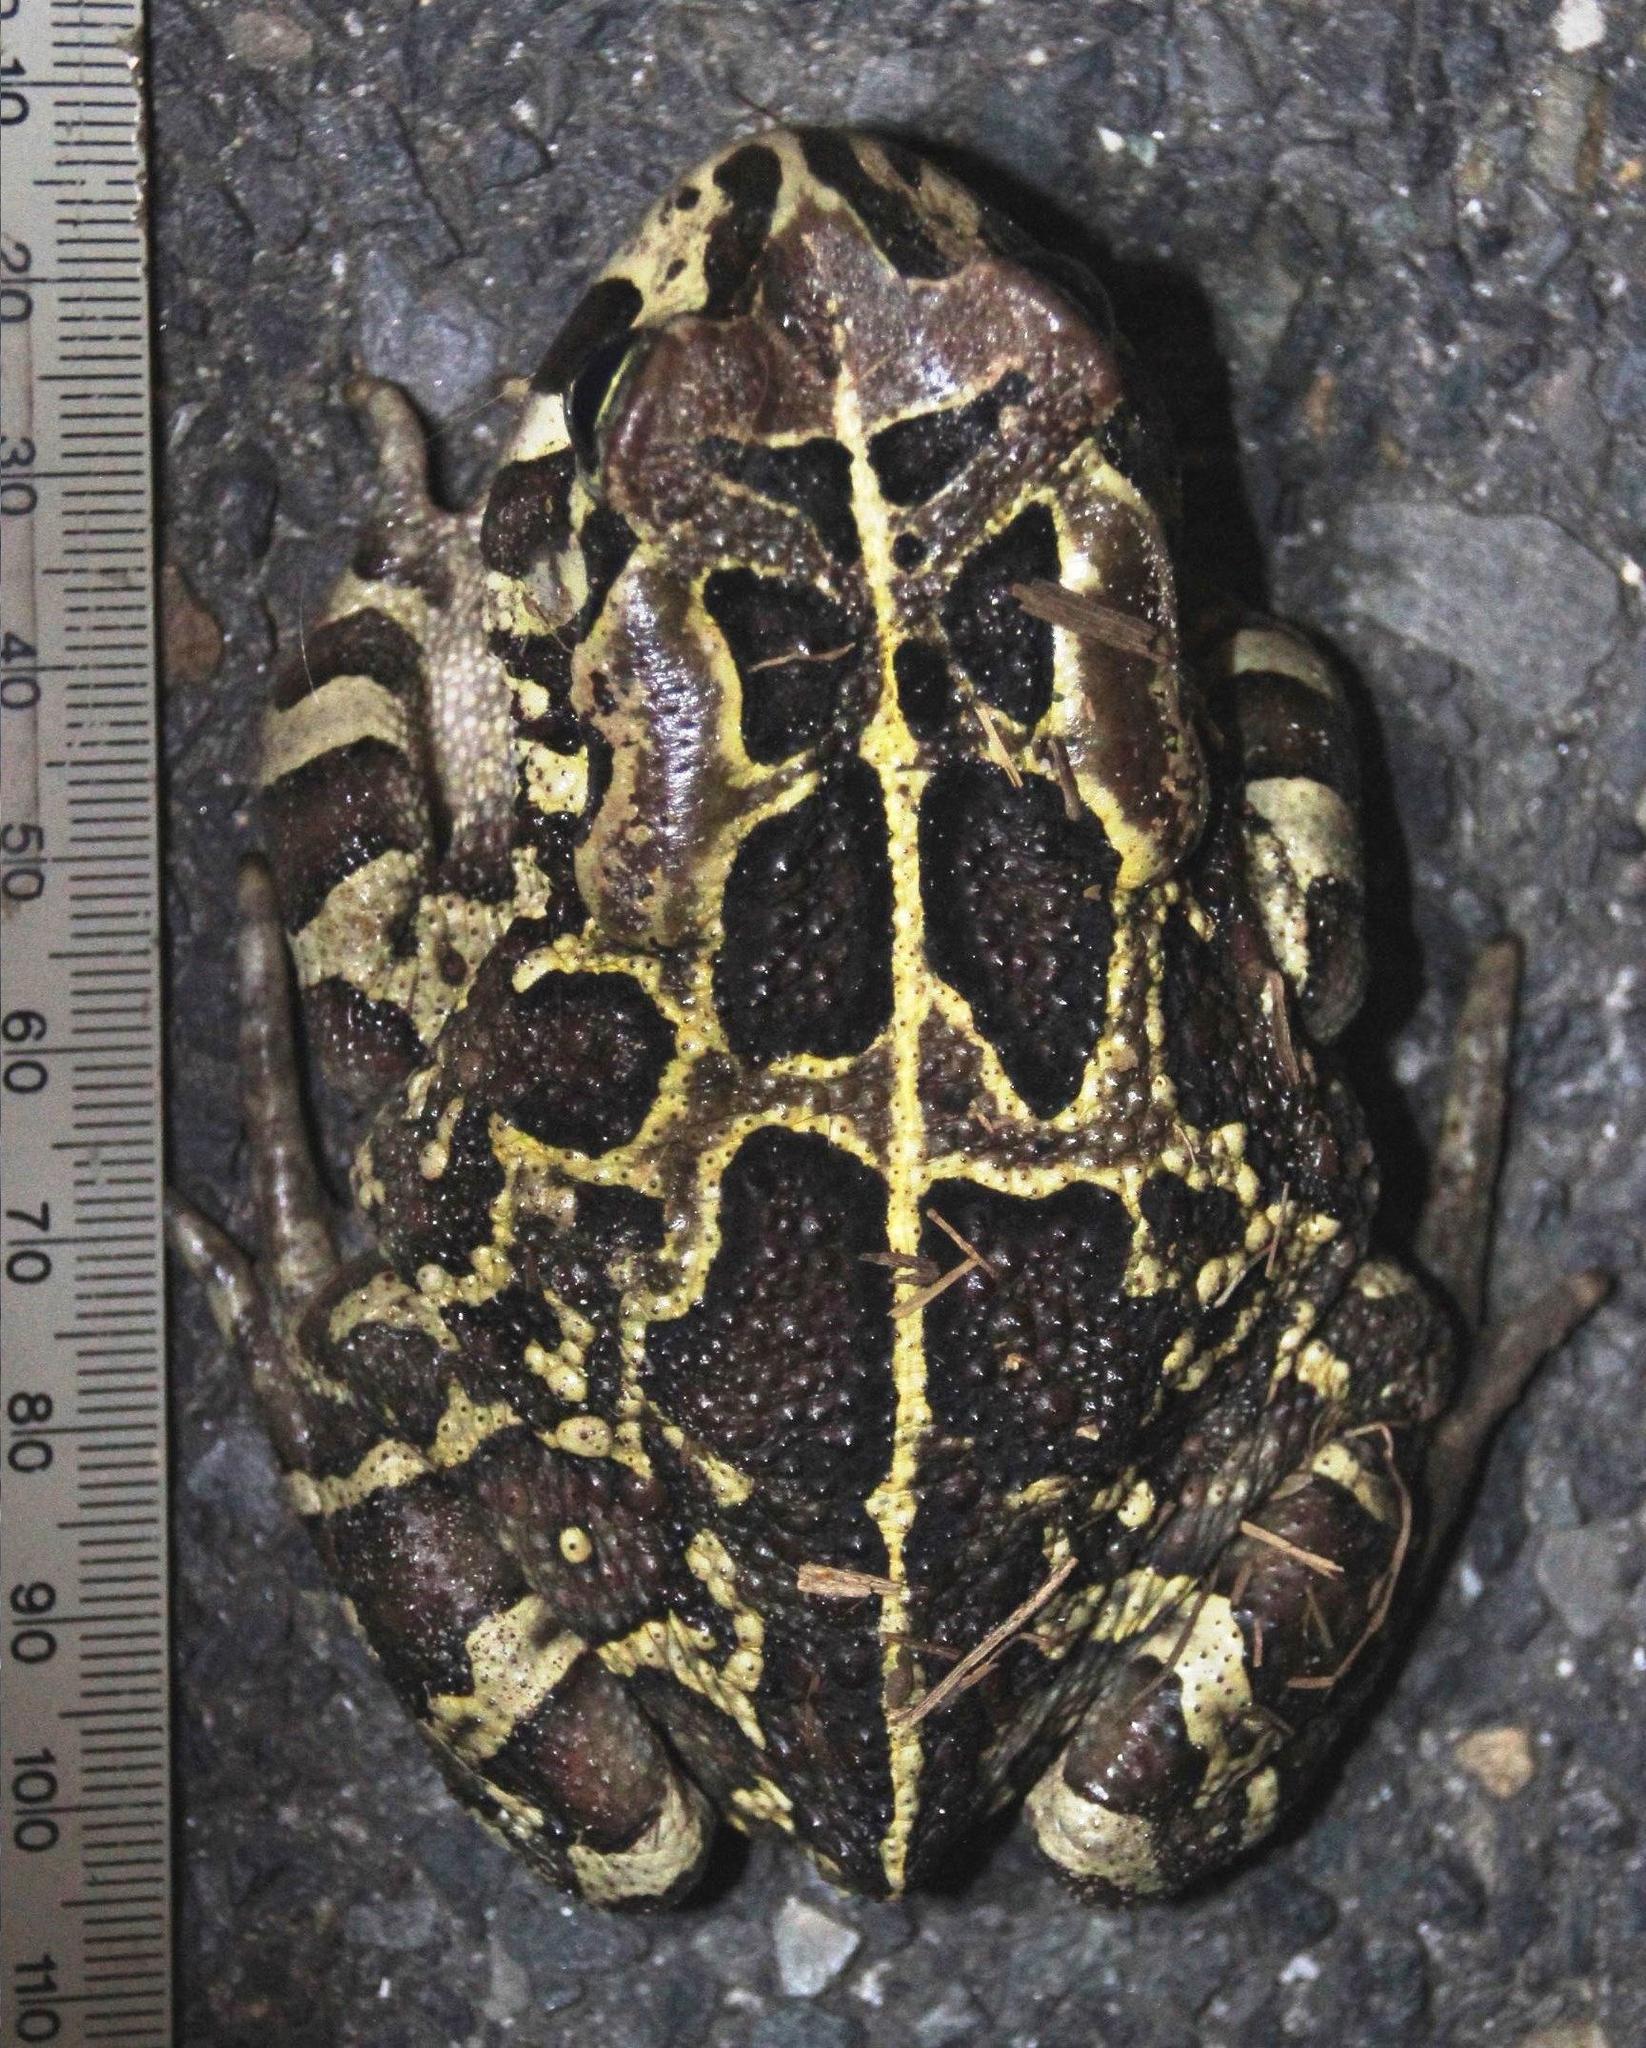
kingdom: Animalia
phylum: Chordata
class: Amphibia
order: Anura
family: Bufonidae
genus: Sclerophrys
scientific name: Sclerophrys pantherina
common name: Panther toad
